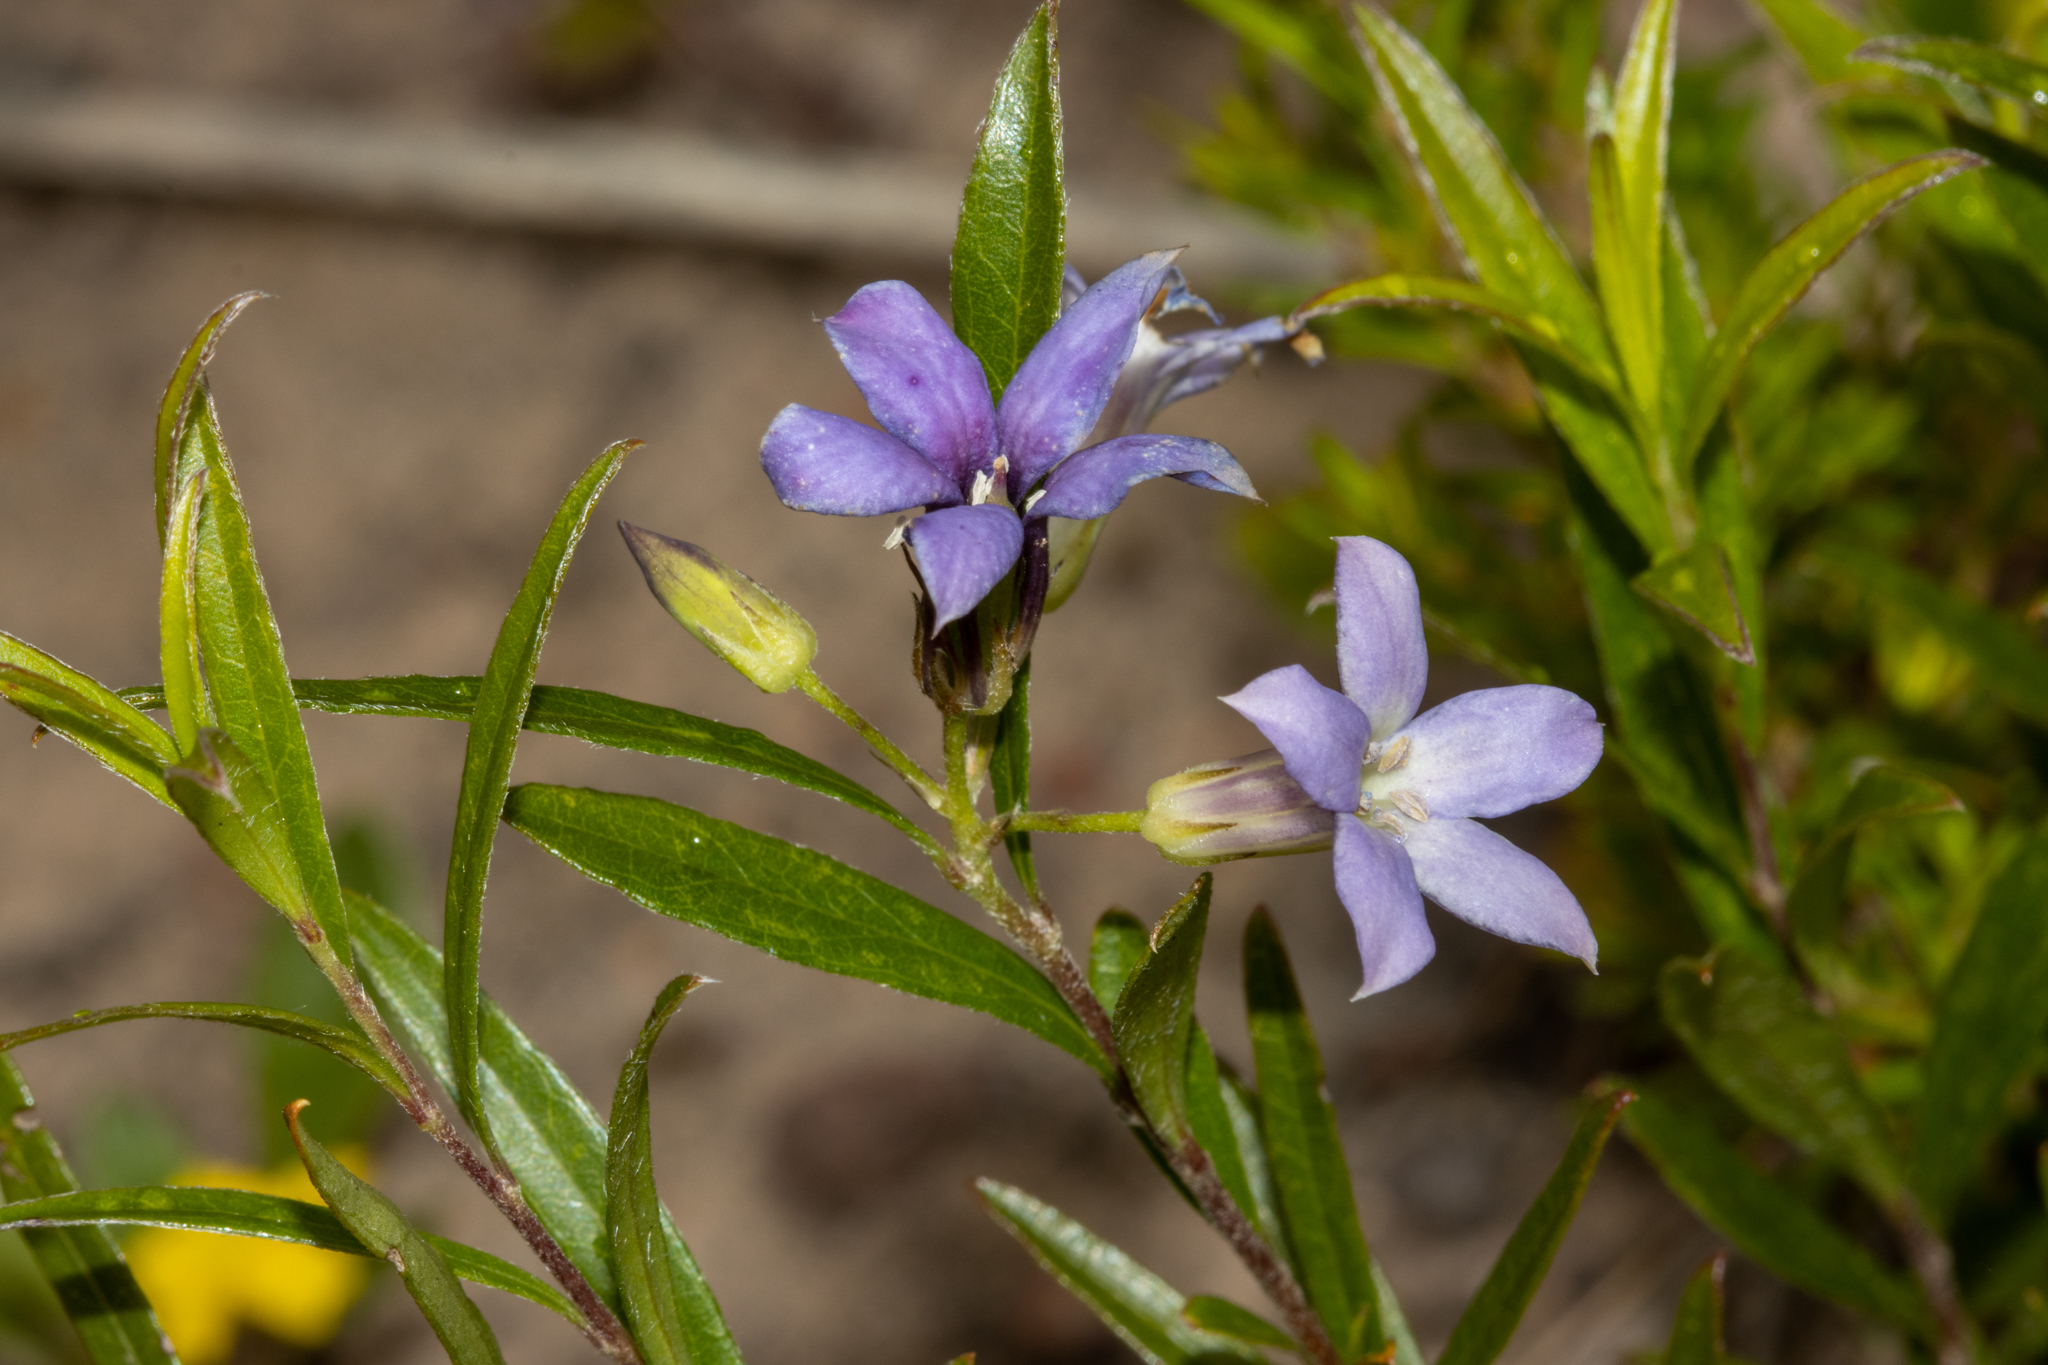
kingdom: Plantae
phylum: Tracheophyta
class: Magnoliopsida
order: Apiales
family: Pittosporaceae
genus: Billardiera
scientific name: Billardiera cymosa
